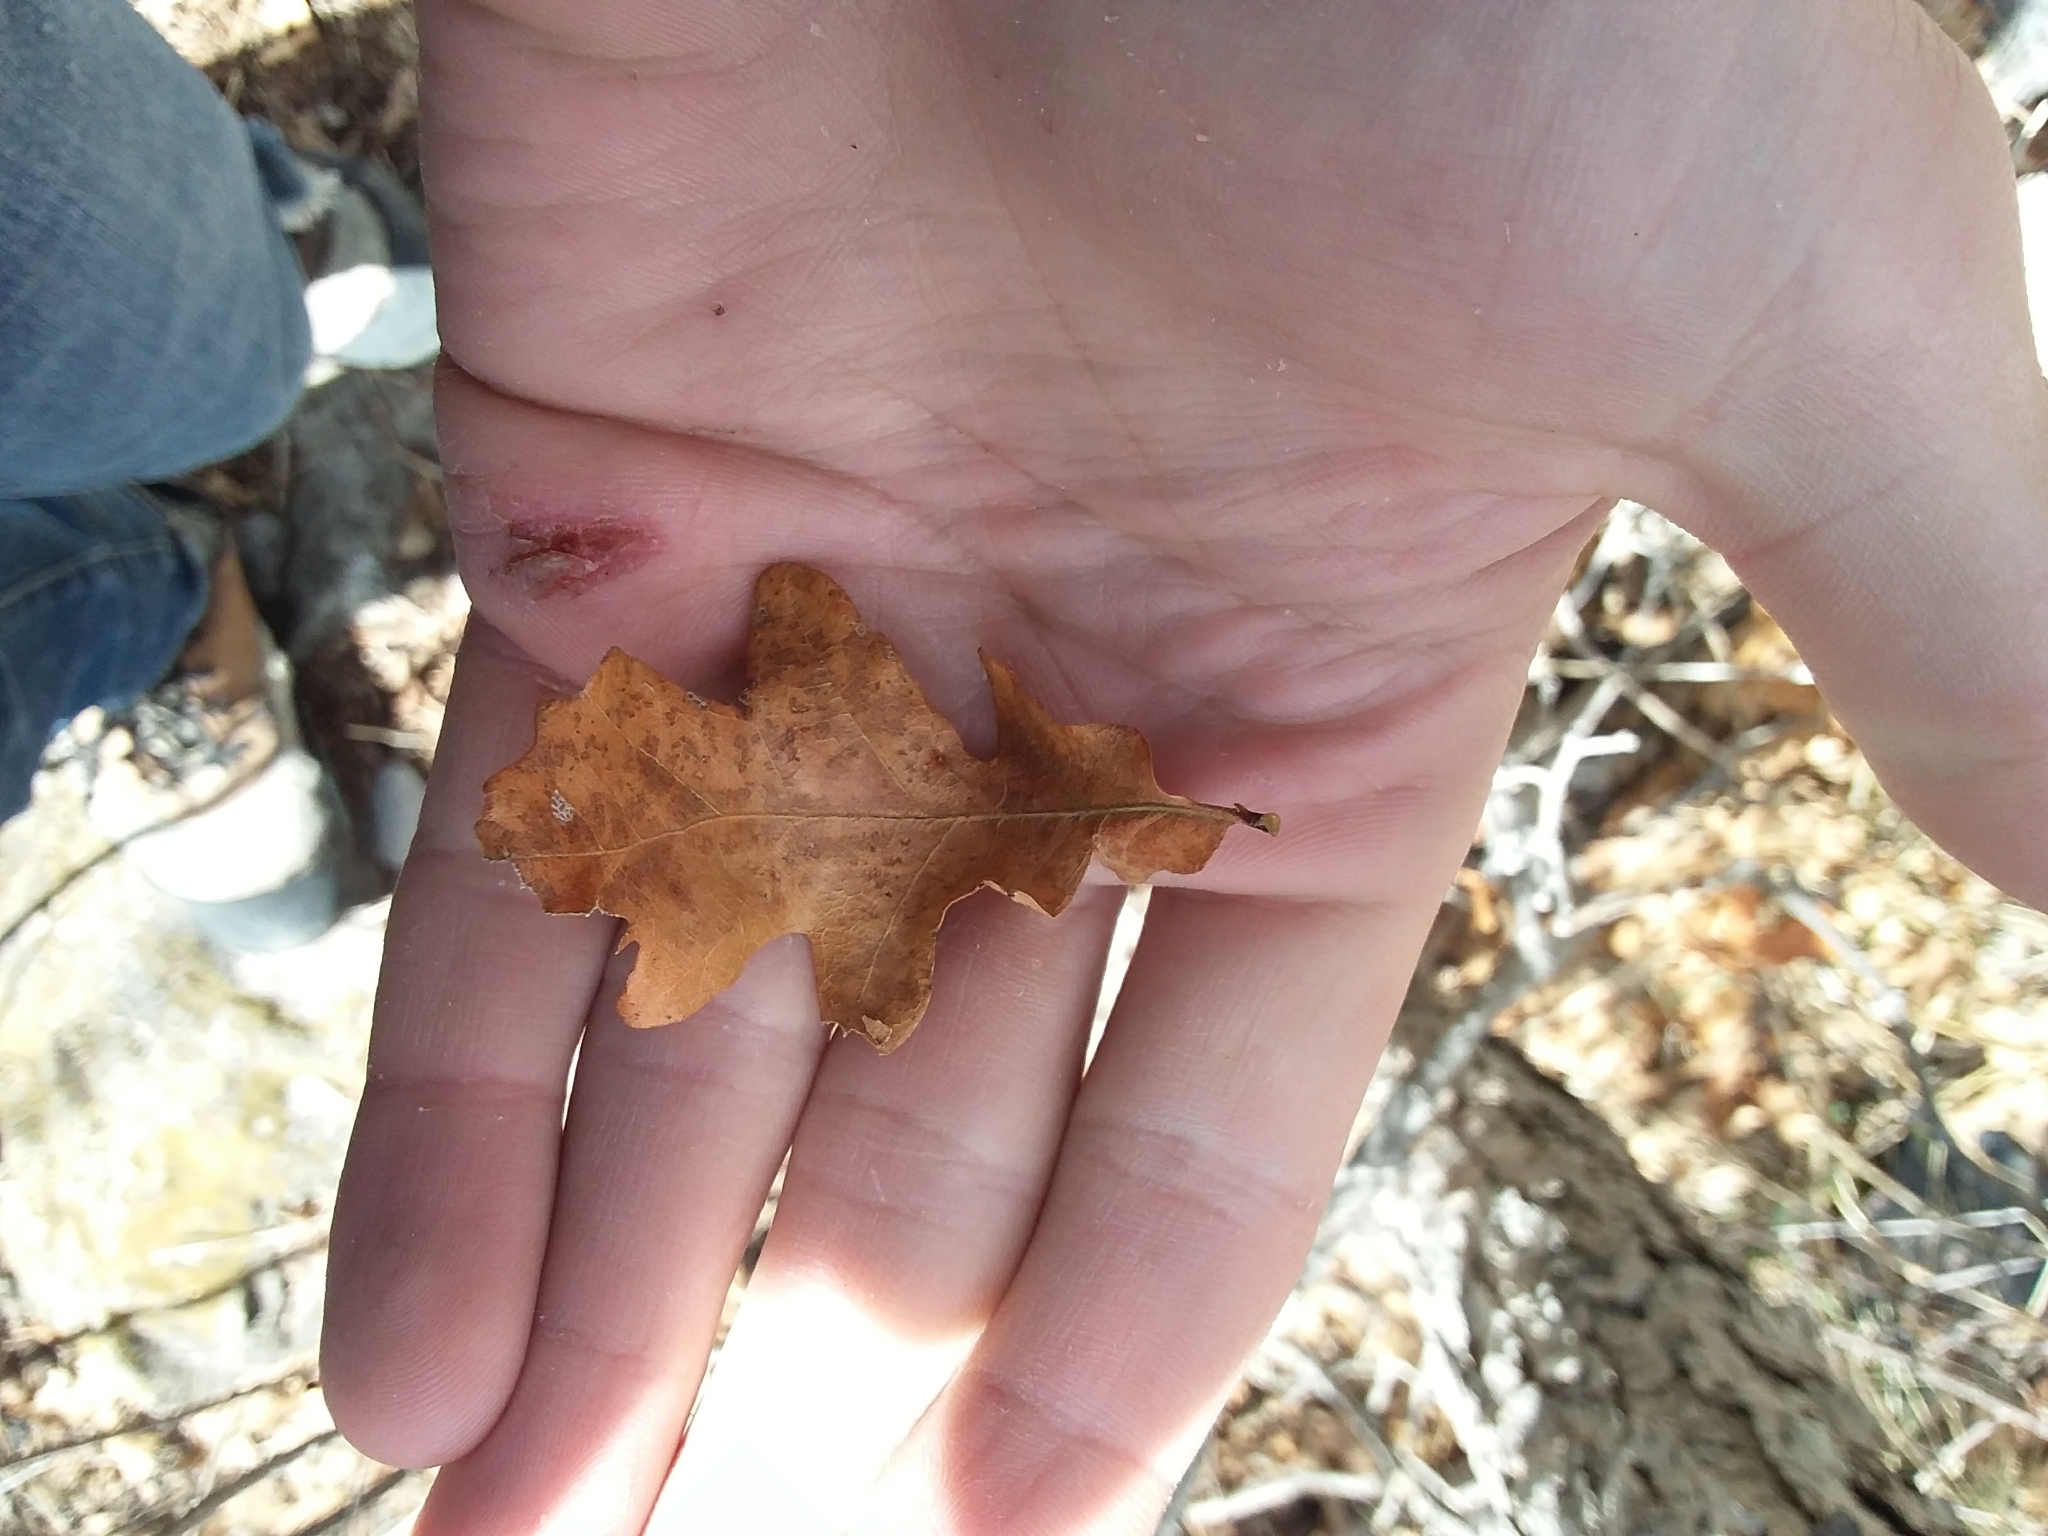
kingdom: Plantae
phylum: Tracheophyta
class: Magnoliopsida
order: Fagales
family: Fagaceae
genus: Quercus
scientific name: Quercus gambelii
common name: Gambel oak
